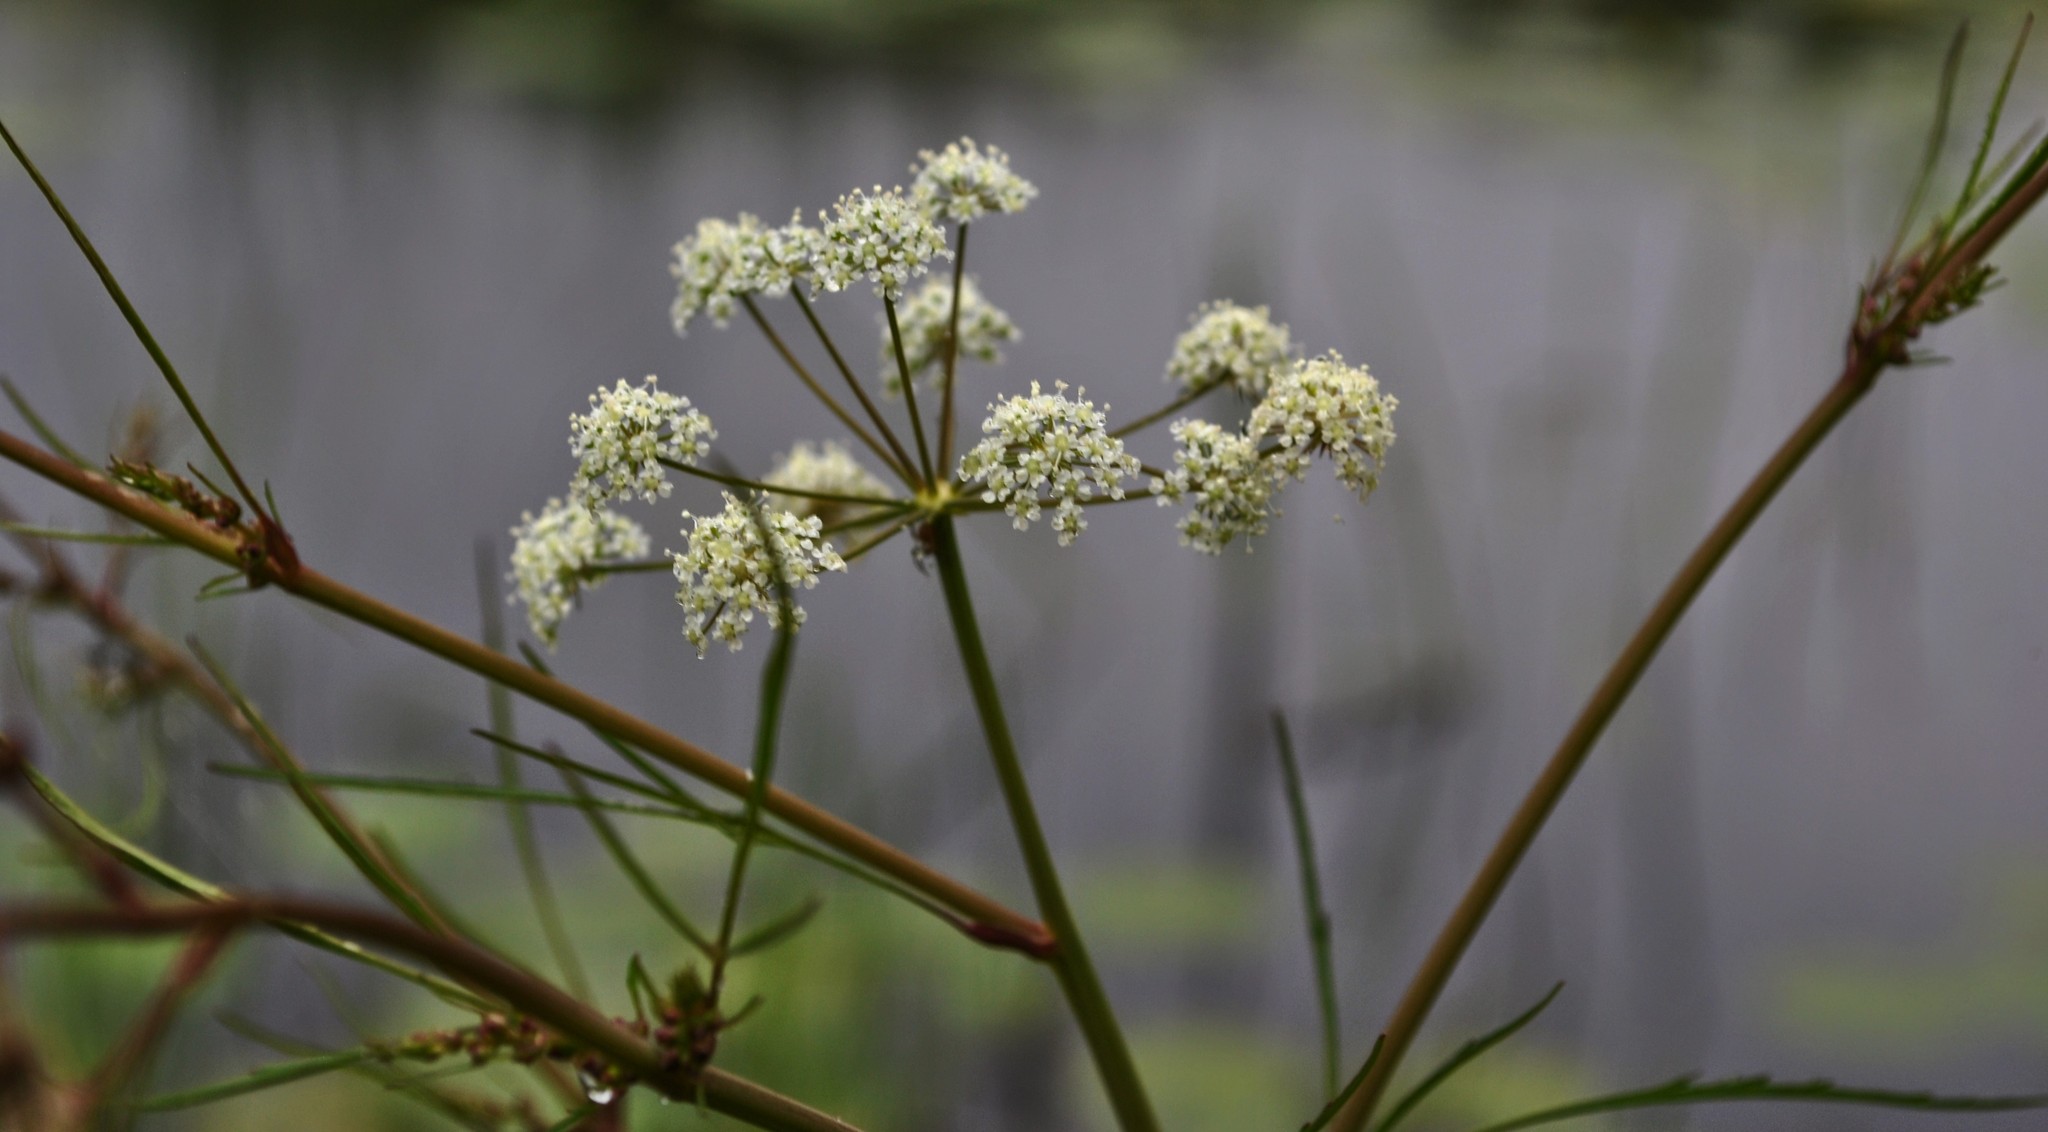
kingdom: Plantae
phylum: Tracheophyta
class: Magnoliopsida
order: Apiales
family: Apiaceae
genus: Cicuta
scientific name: Cicuta bulbifera
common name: Bulb-bearing water-hemlock
